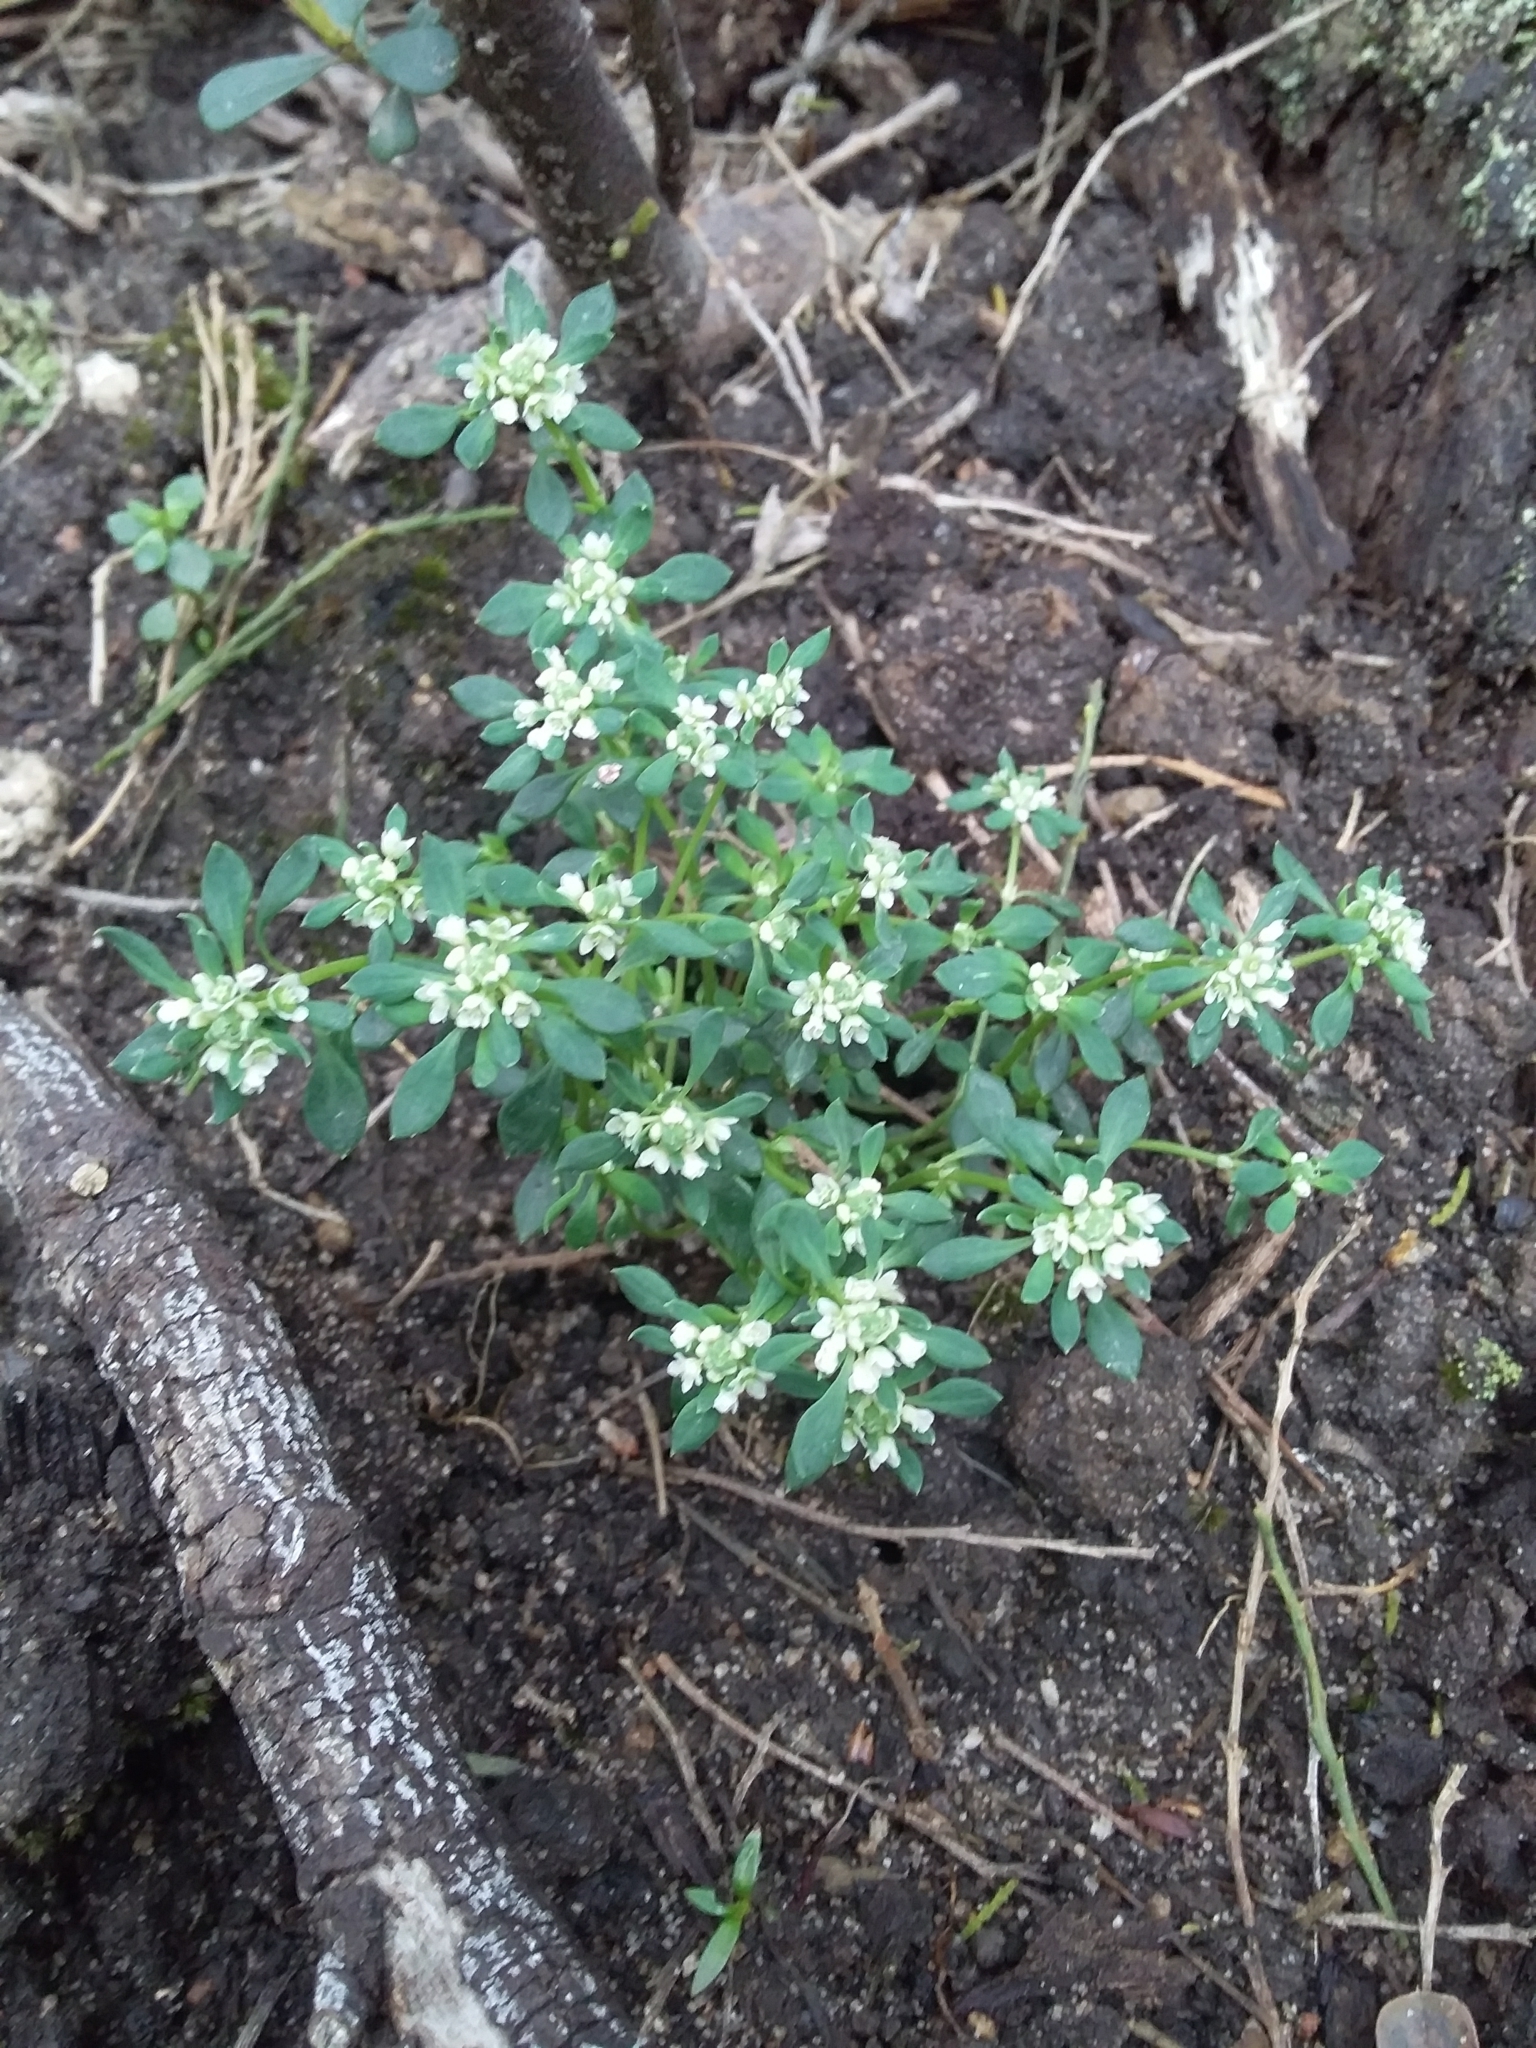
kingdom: Plantae
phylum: Tracheophyta
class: Magnoliopsida
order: Malpighiales
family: Phyllanthaceae
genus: Poranthera
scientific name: Poranthera microphylla
